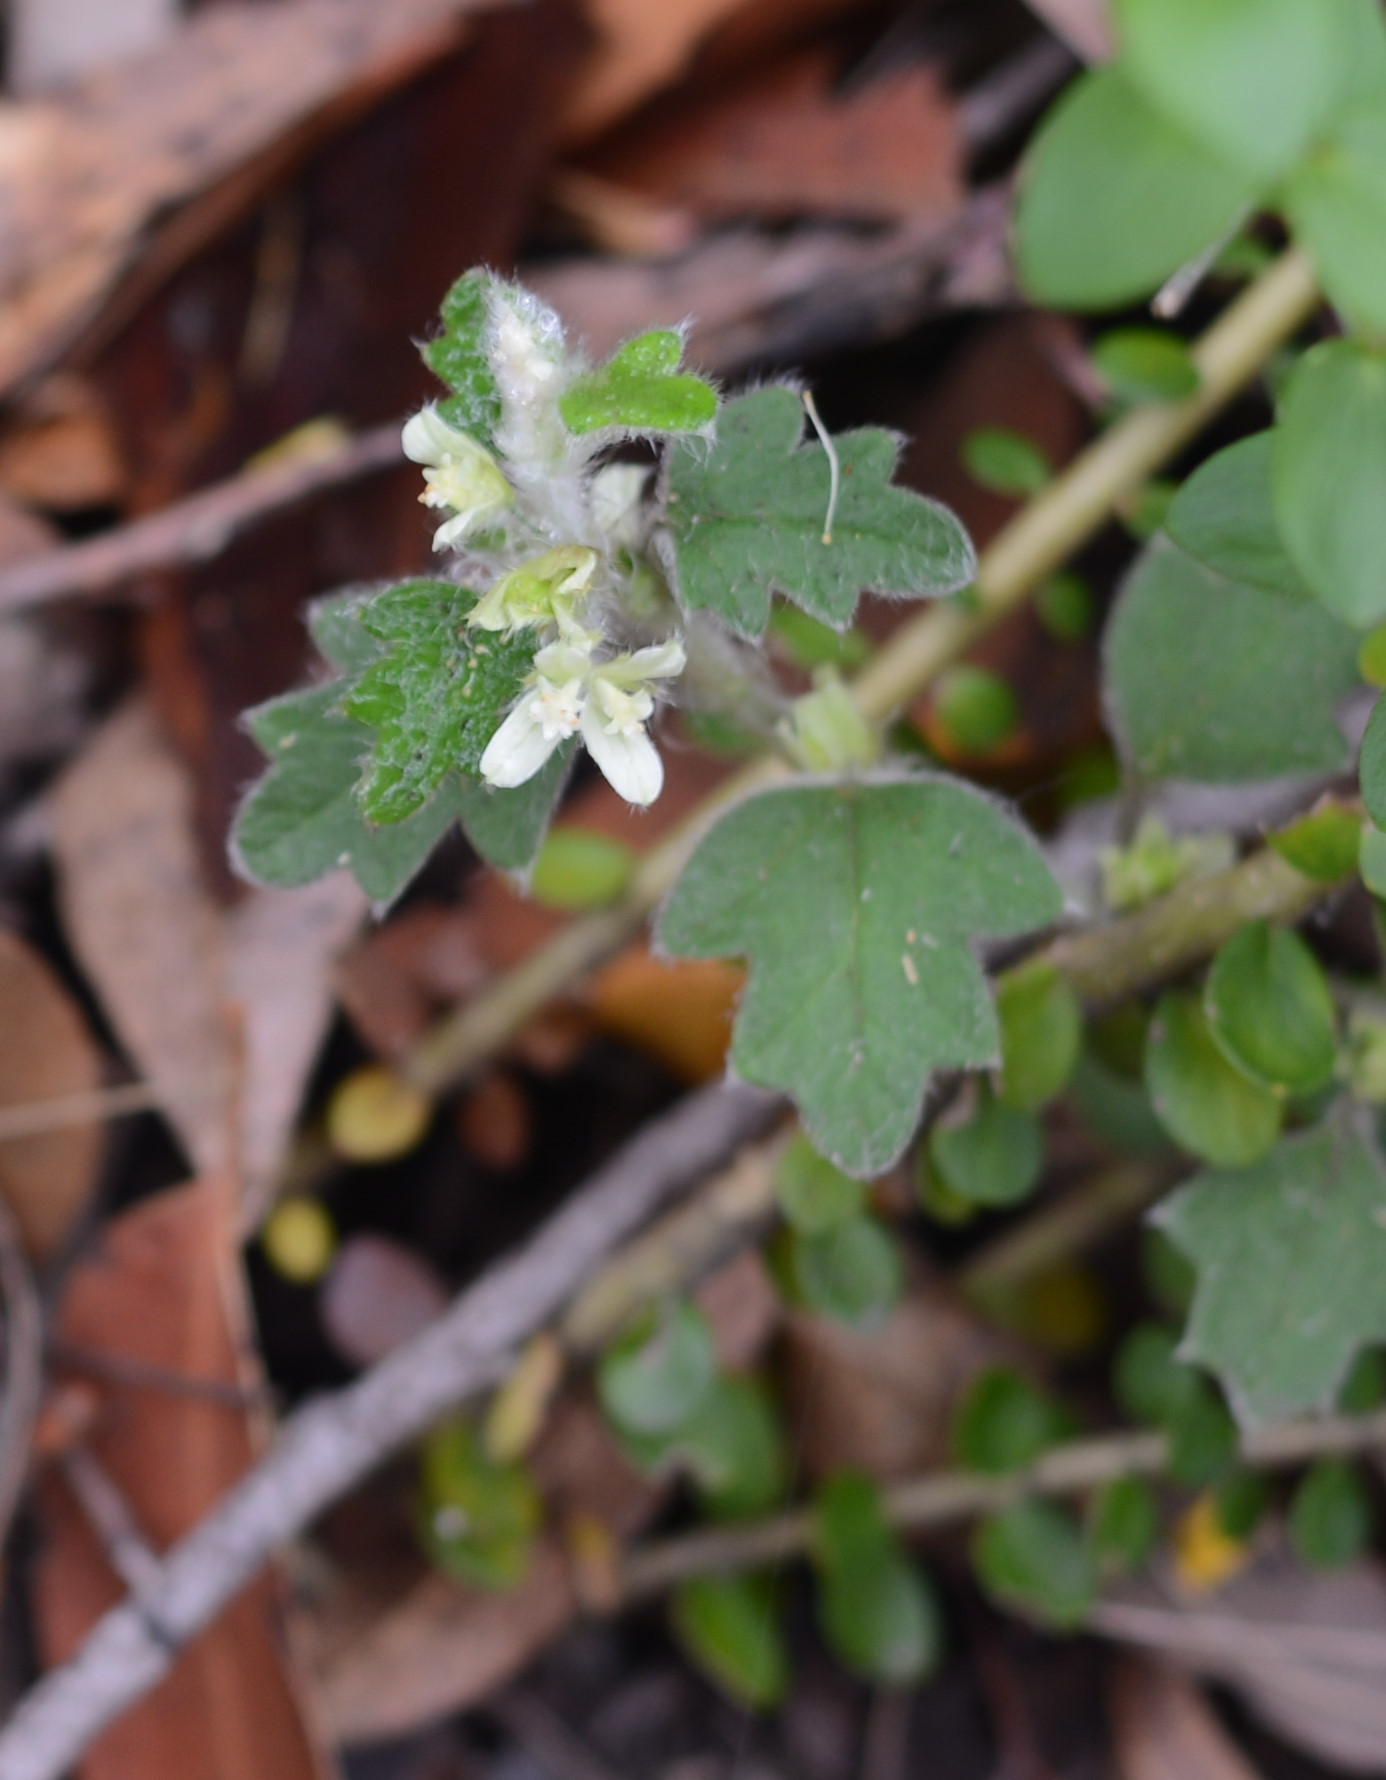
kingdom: Plantae
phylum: Tracheophyta
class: Magnoliopsida
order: Apiales
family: Apiaceae
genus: Xanthosia
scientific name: Xanthosia pilosa
